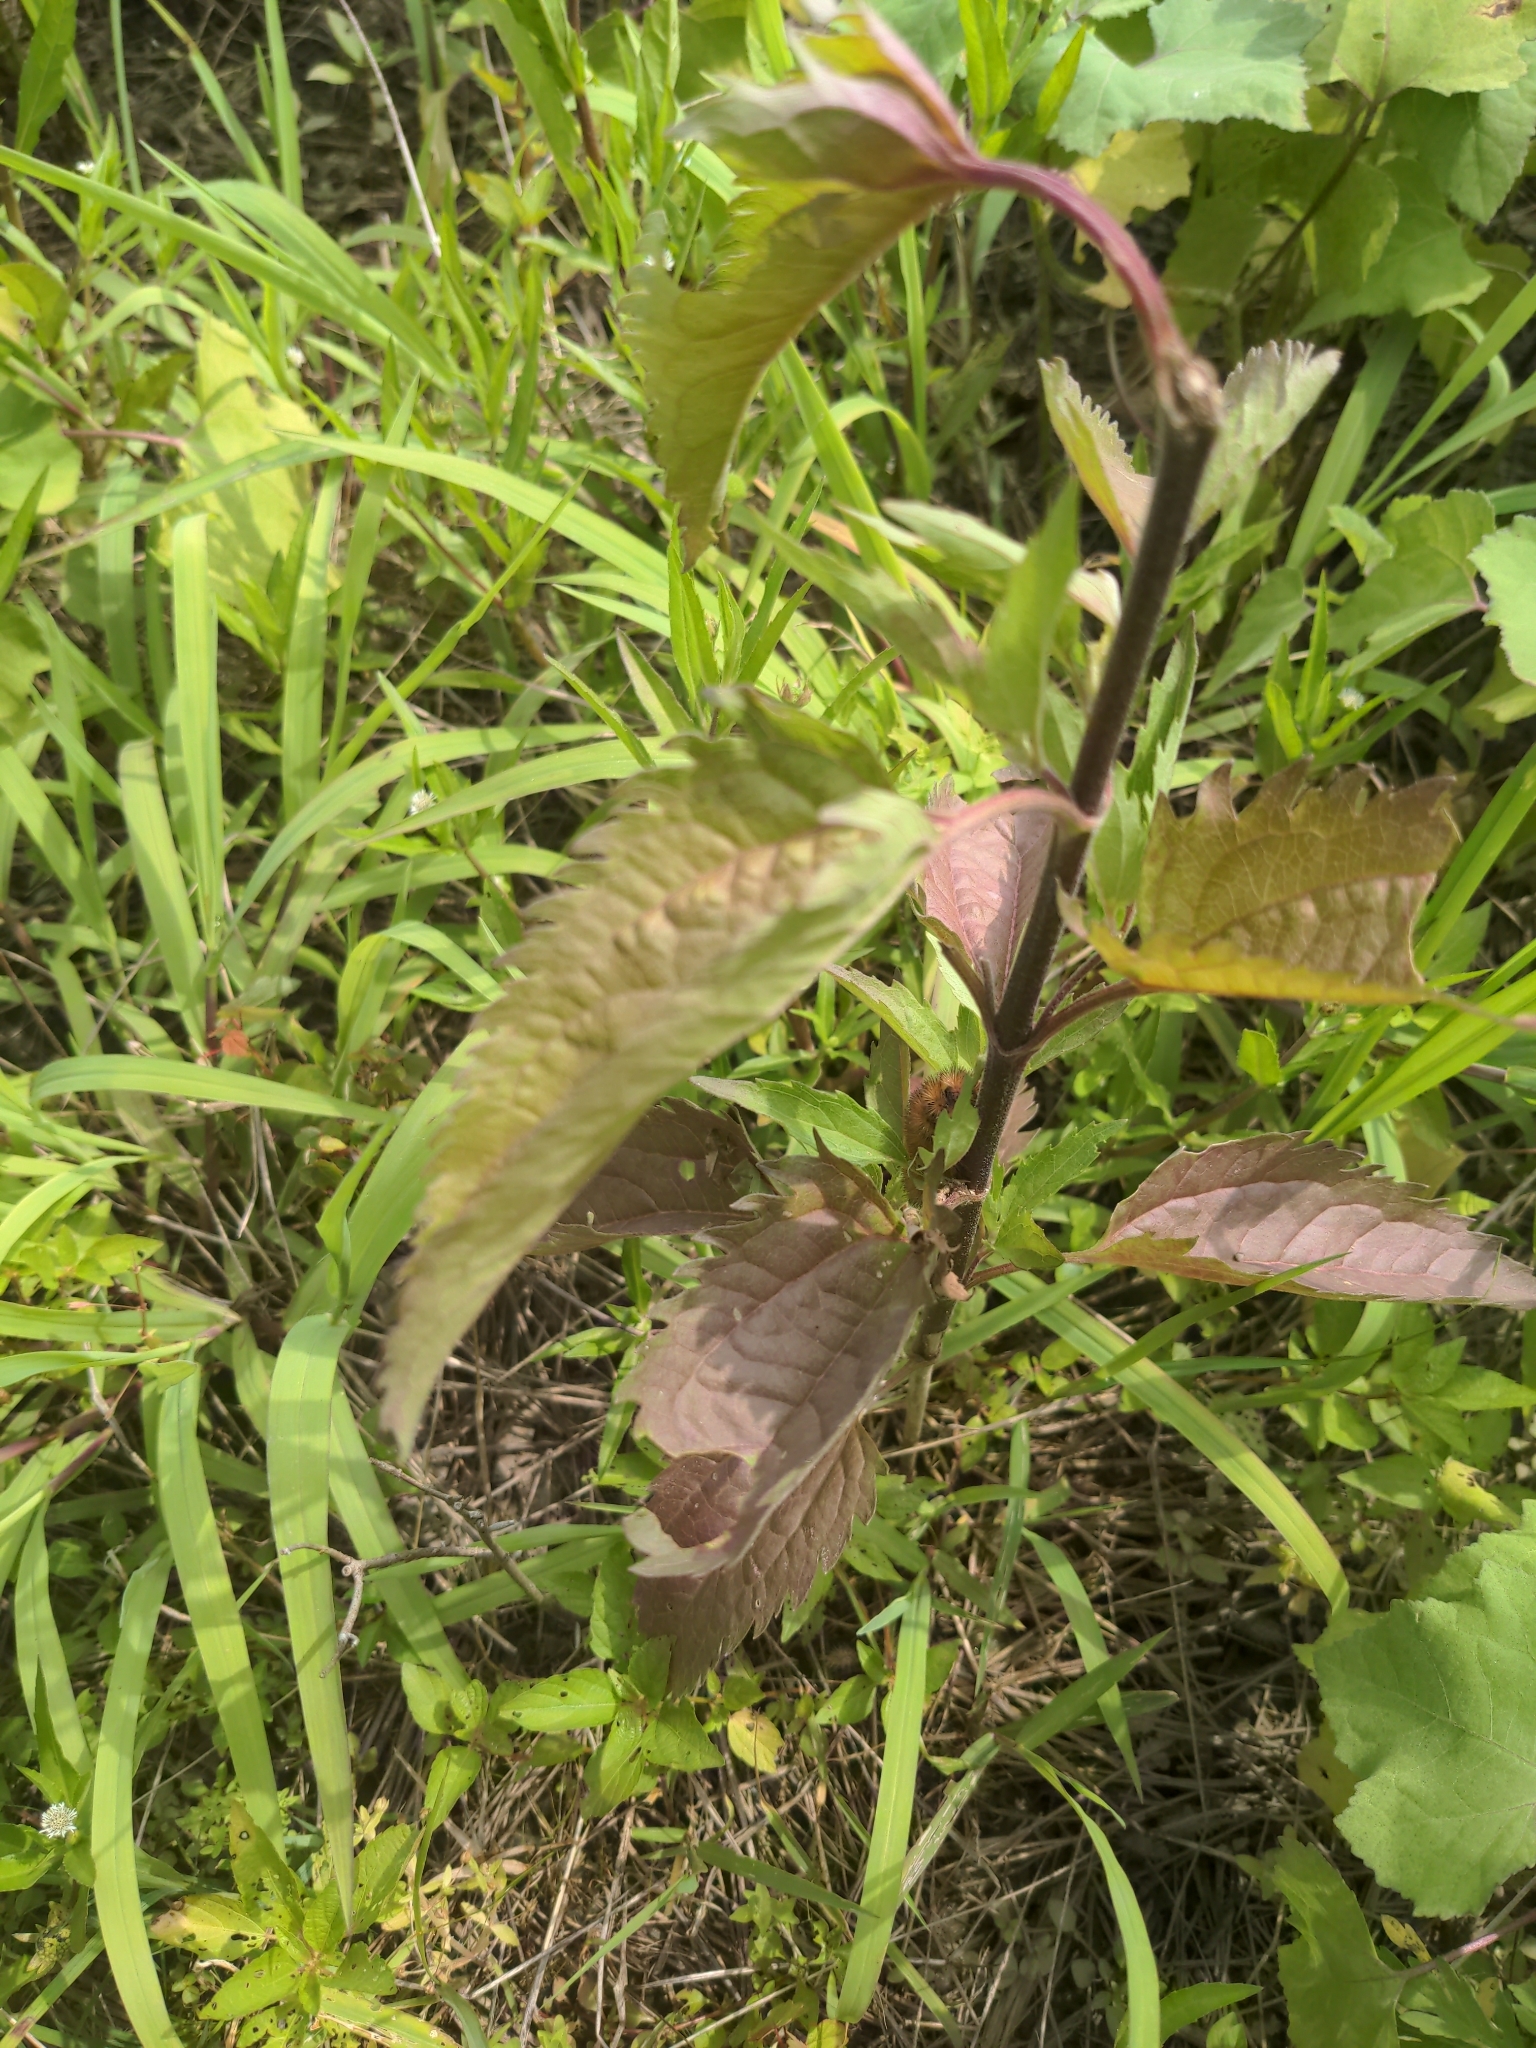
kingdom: Plantae
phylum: Tracheophyta
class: Magnoliopsida
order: Asterales
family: Asteraceae
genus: Eupatorium
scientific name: Eupatorium serotinum
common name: Late boneset
